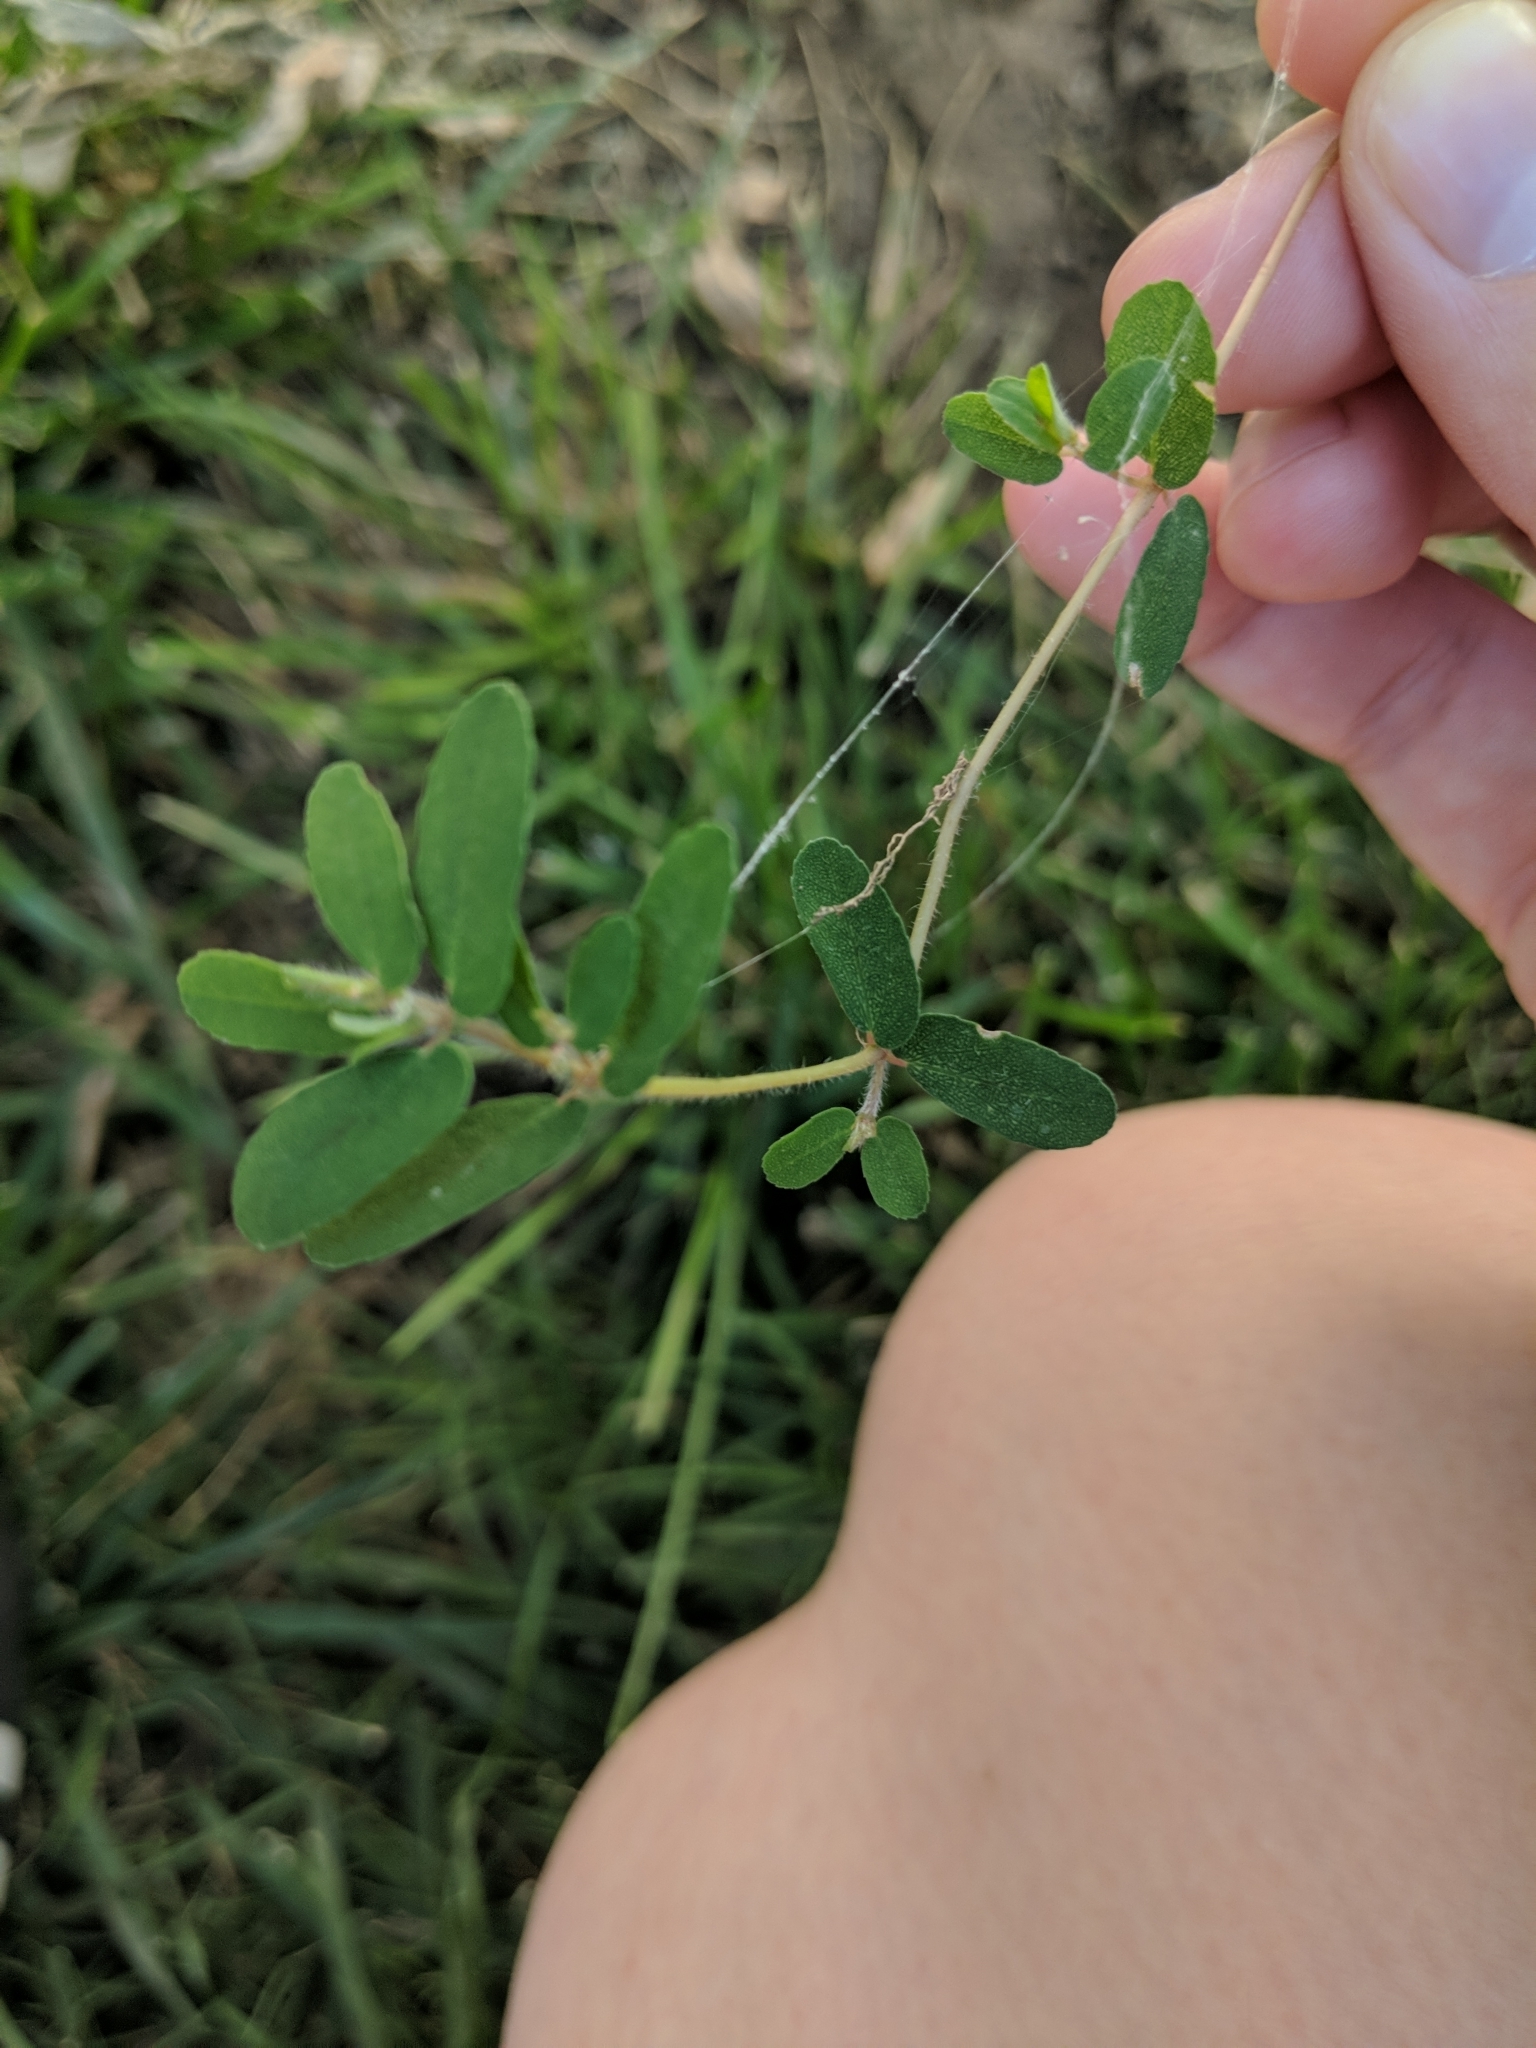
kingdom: Plantae
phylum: Tracheophyta
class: Magnoliopsida
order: Malpighiales
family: Euphorbiaceae
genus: Euphorbia
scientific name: Euphorbia maculata
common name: Spotted spurge
